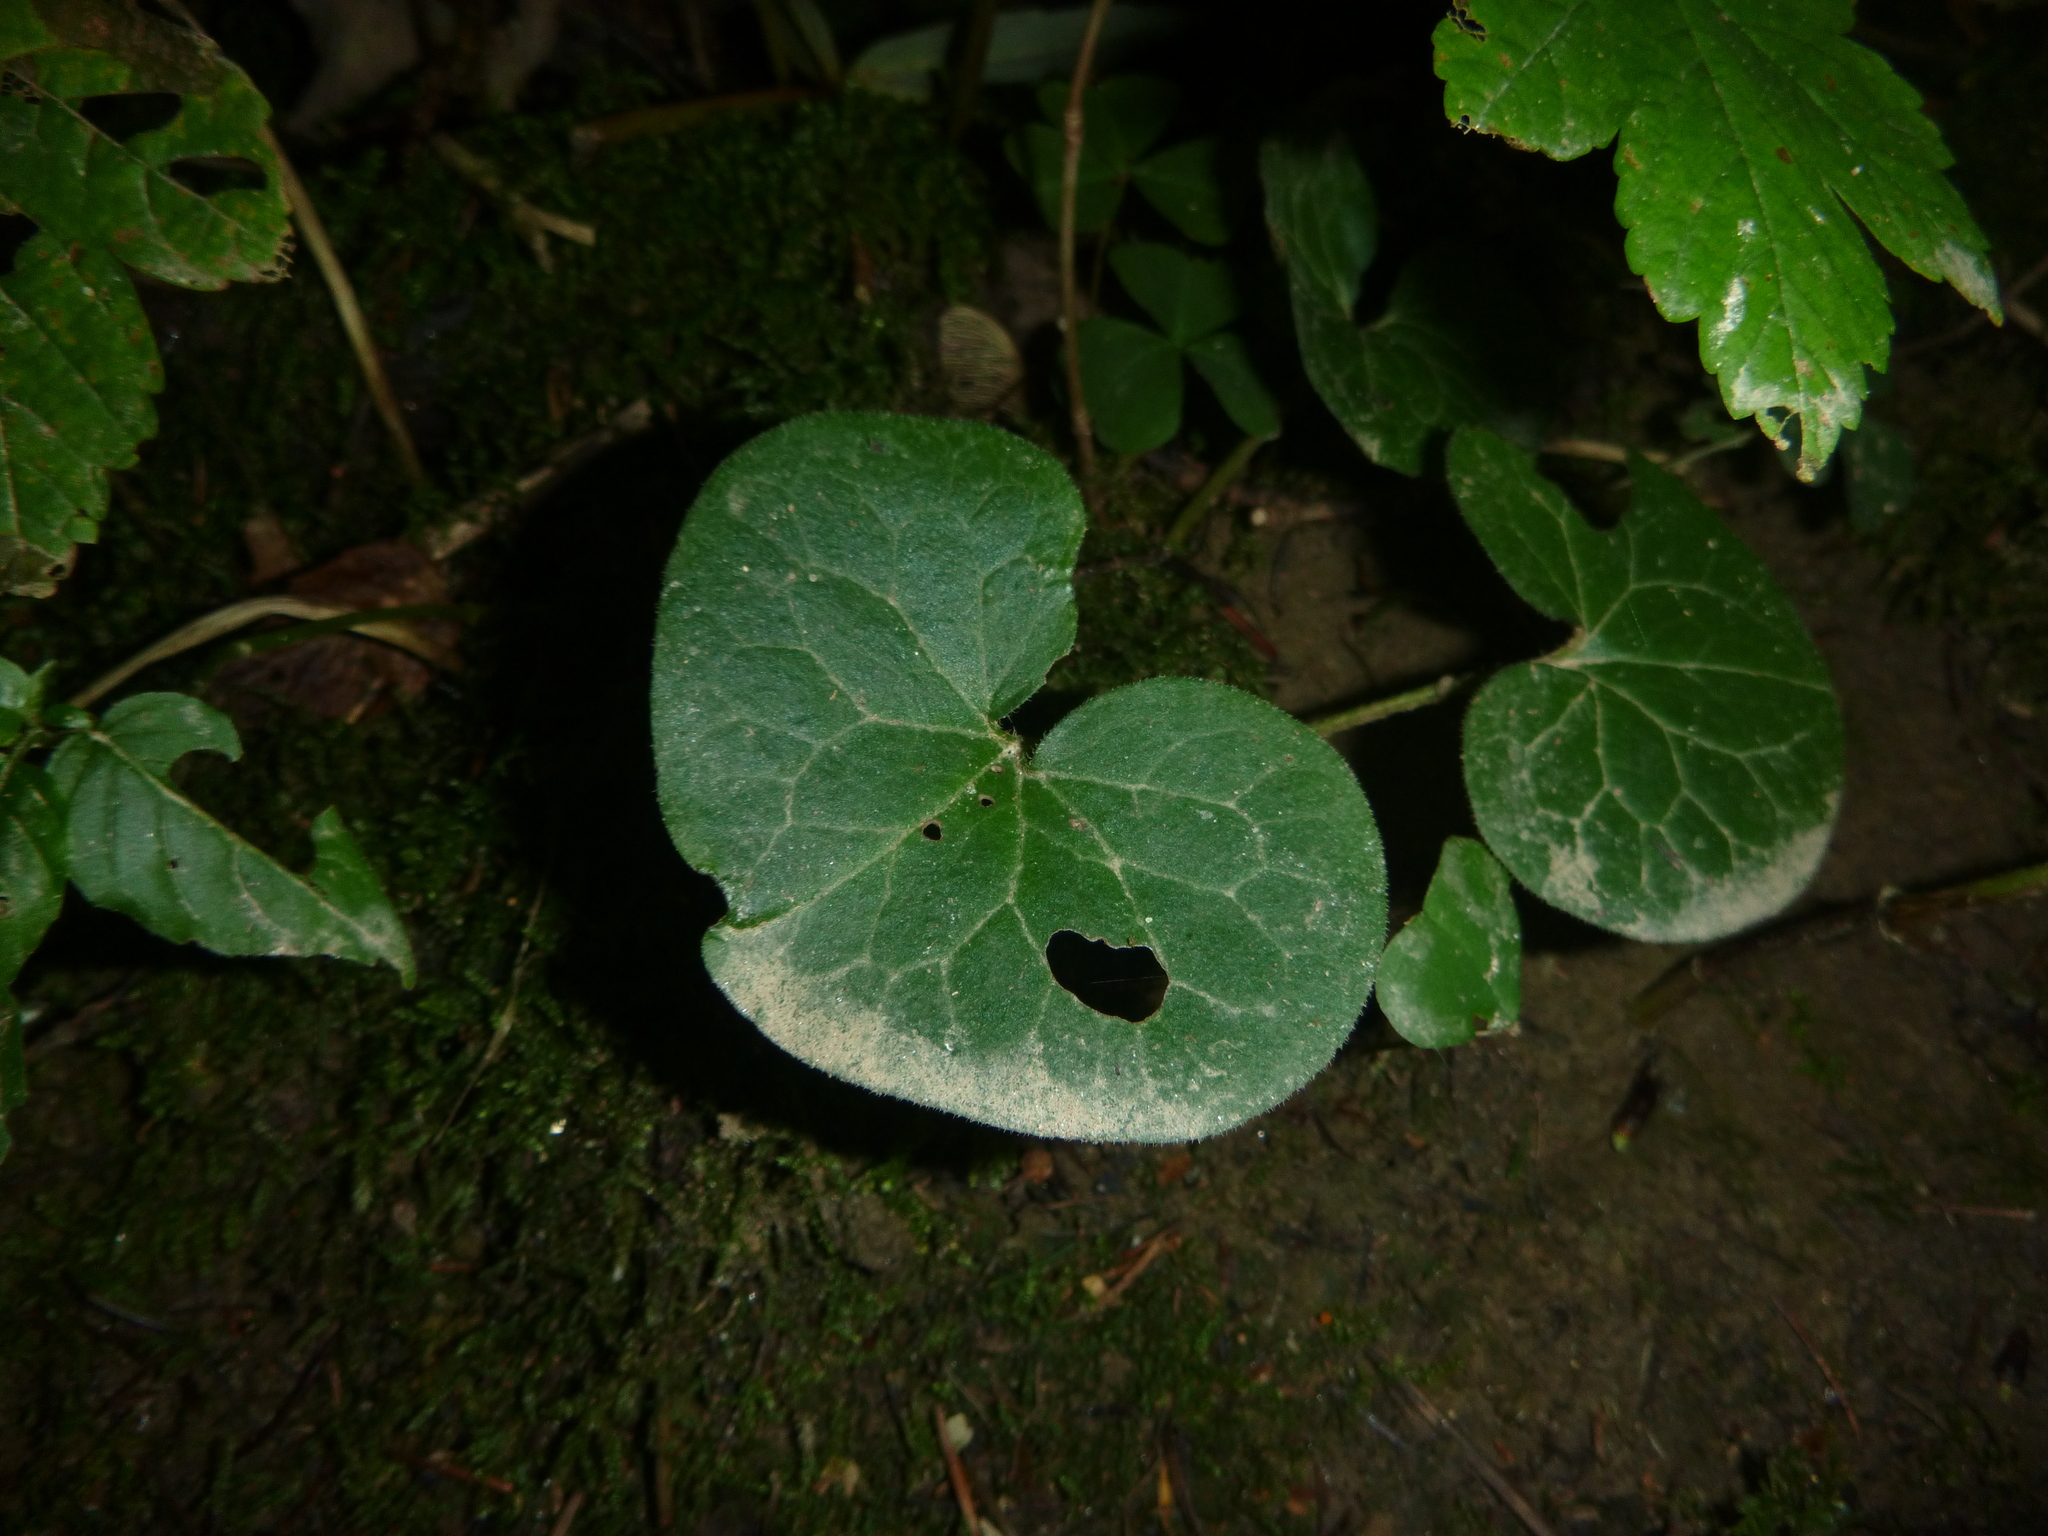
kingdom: Plantae
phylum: Tracheophyta
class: Magnoliopsida
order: Piperales
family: Aristolochiaceae
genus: Asarum
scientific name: Asarum europaeum
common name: Asarabacca
